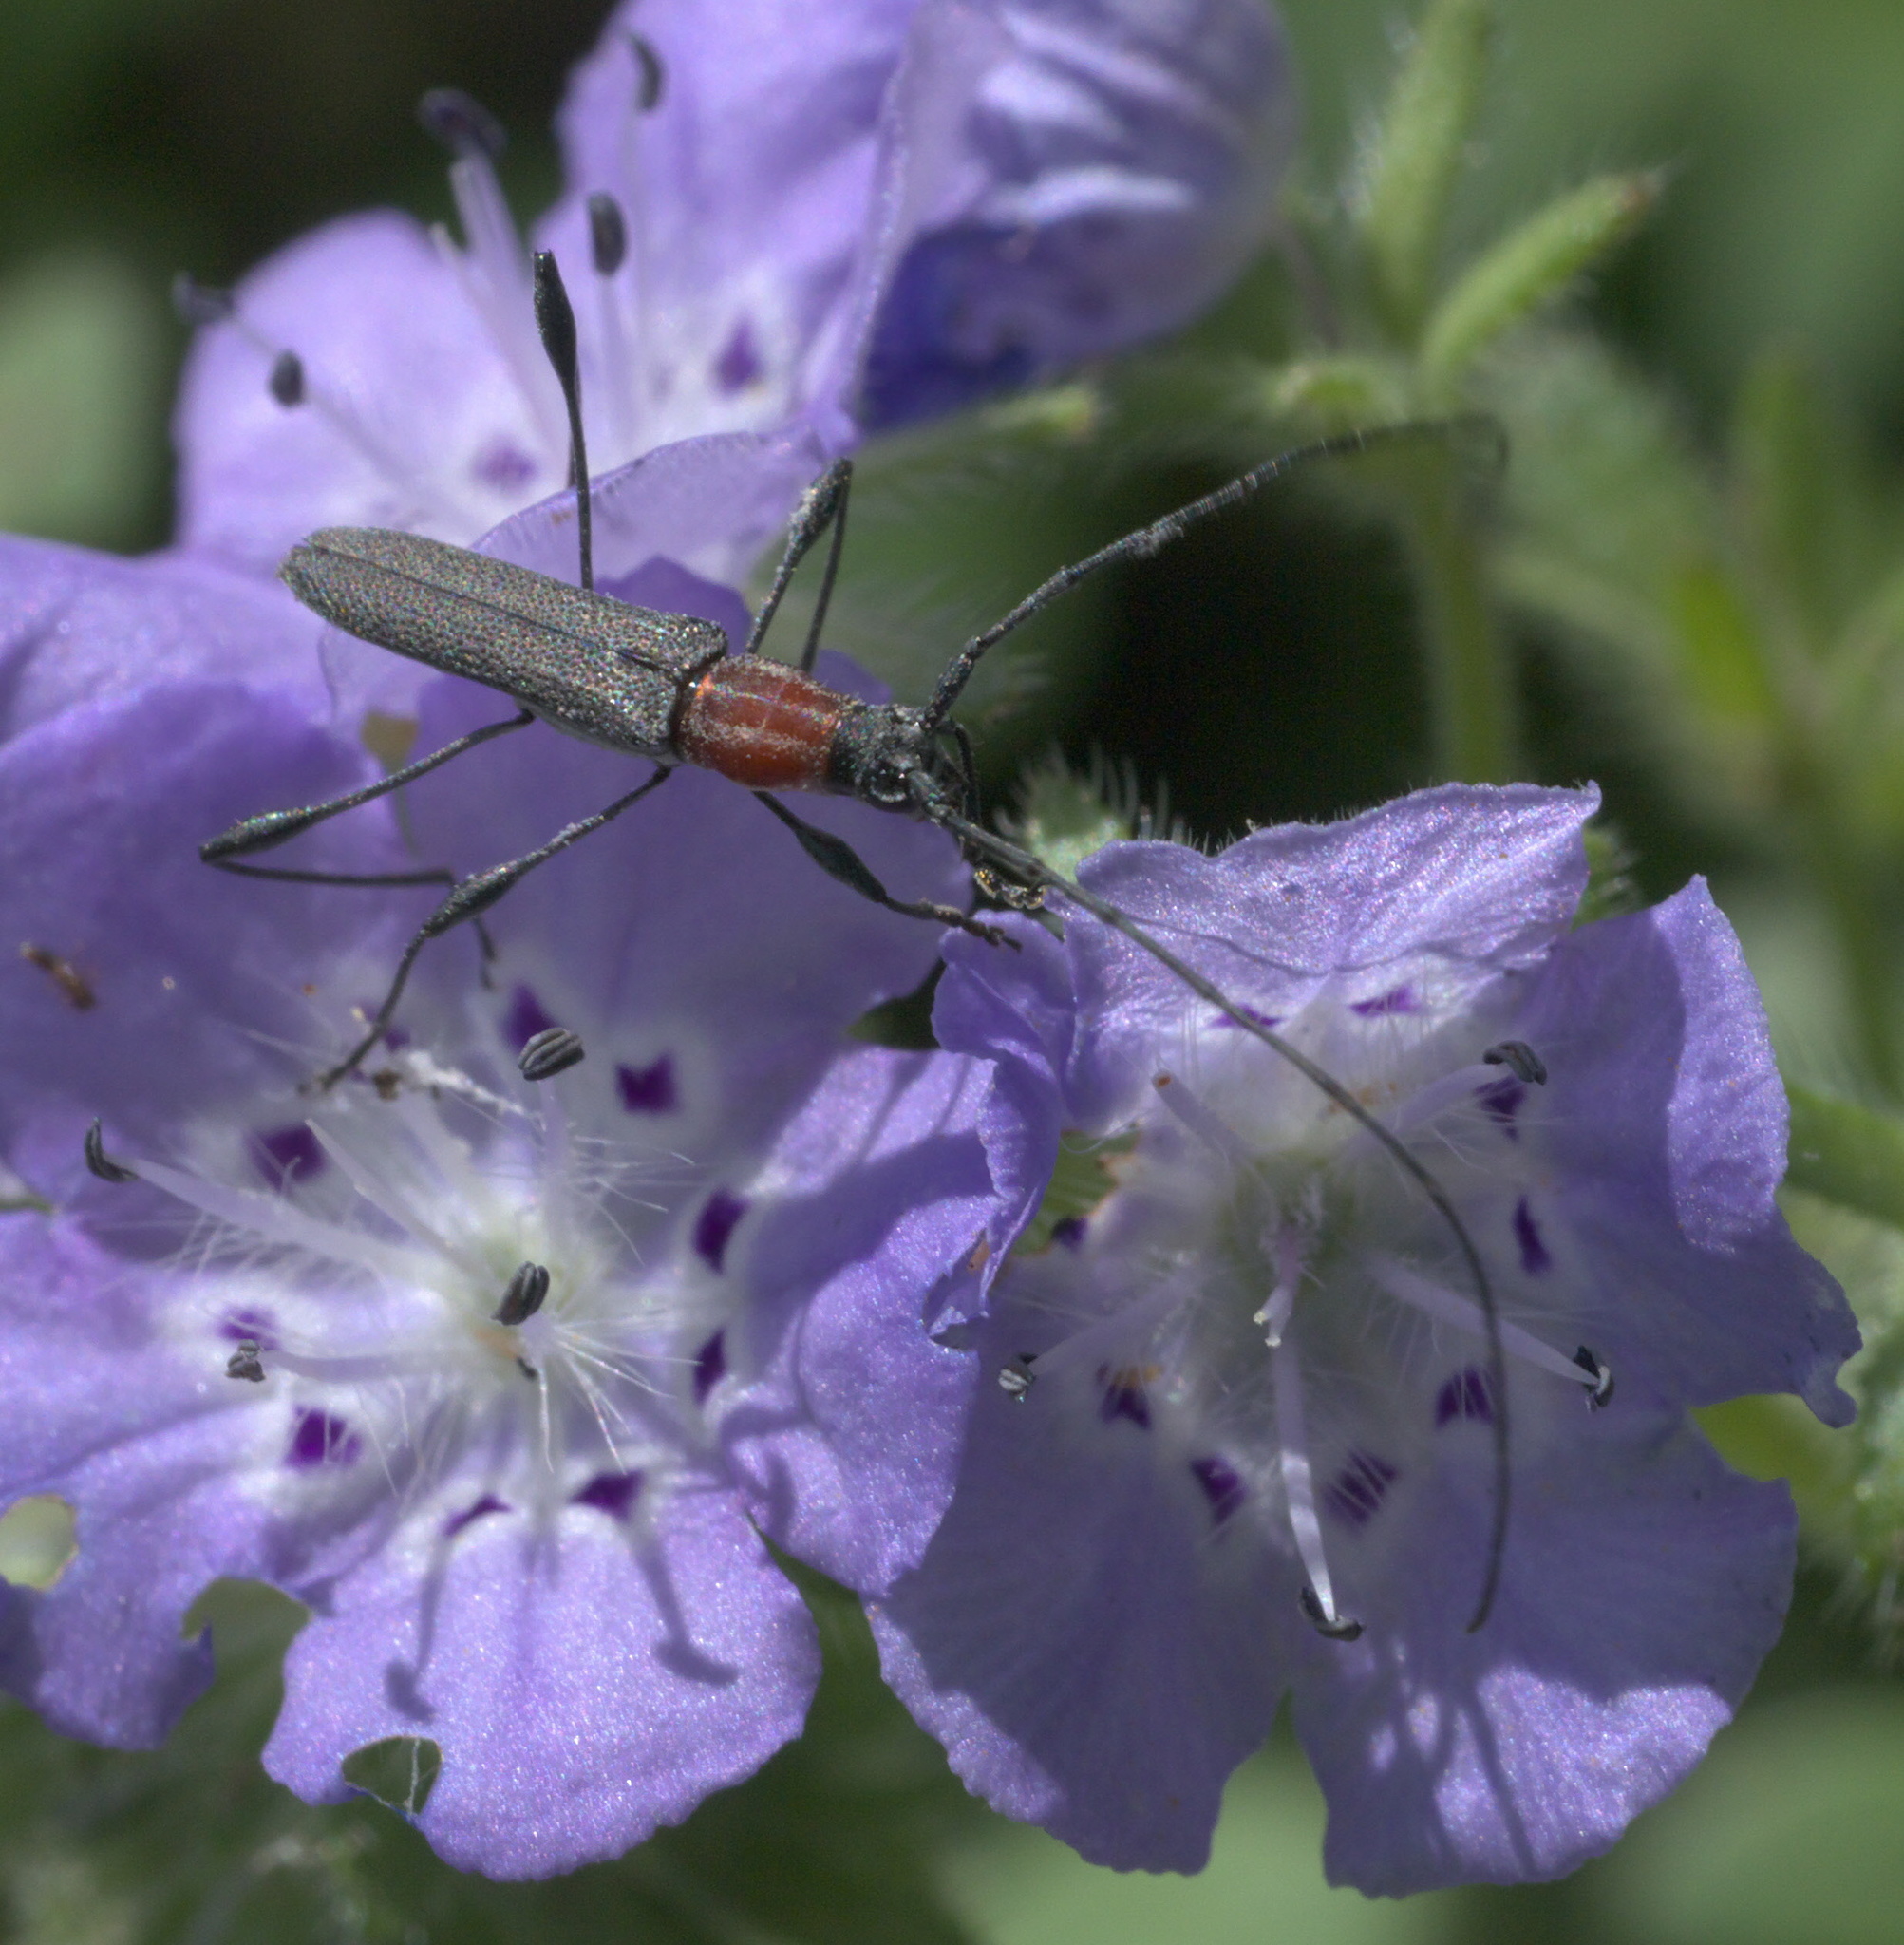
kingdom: Animalia
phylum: Arthropoda
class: Insecta
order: Coleoptera
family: Cerambycidae
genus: Rhopalophora
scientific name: Rhopalophora longipes
